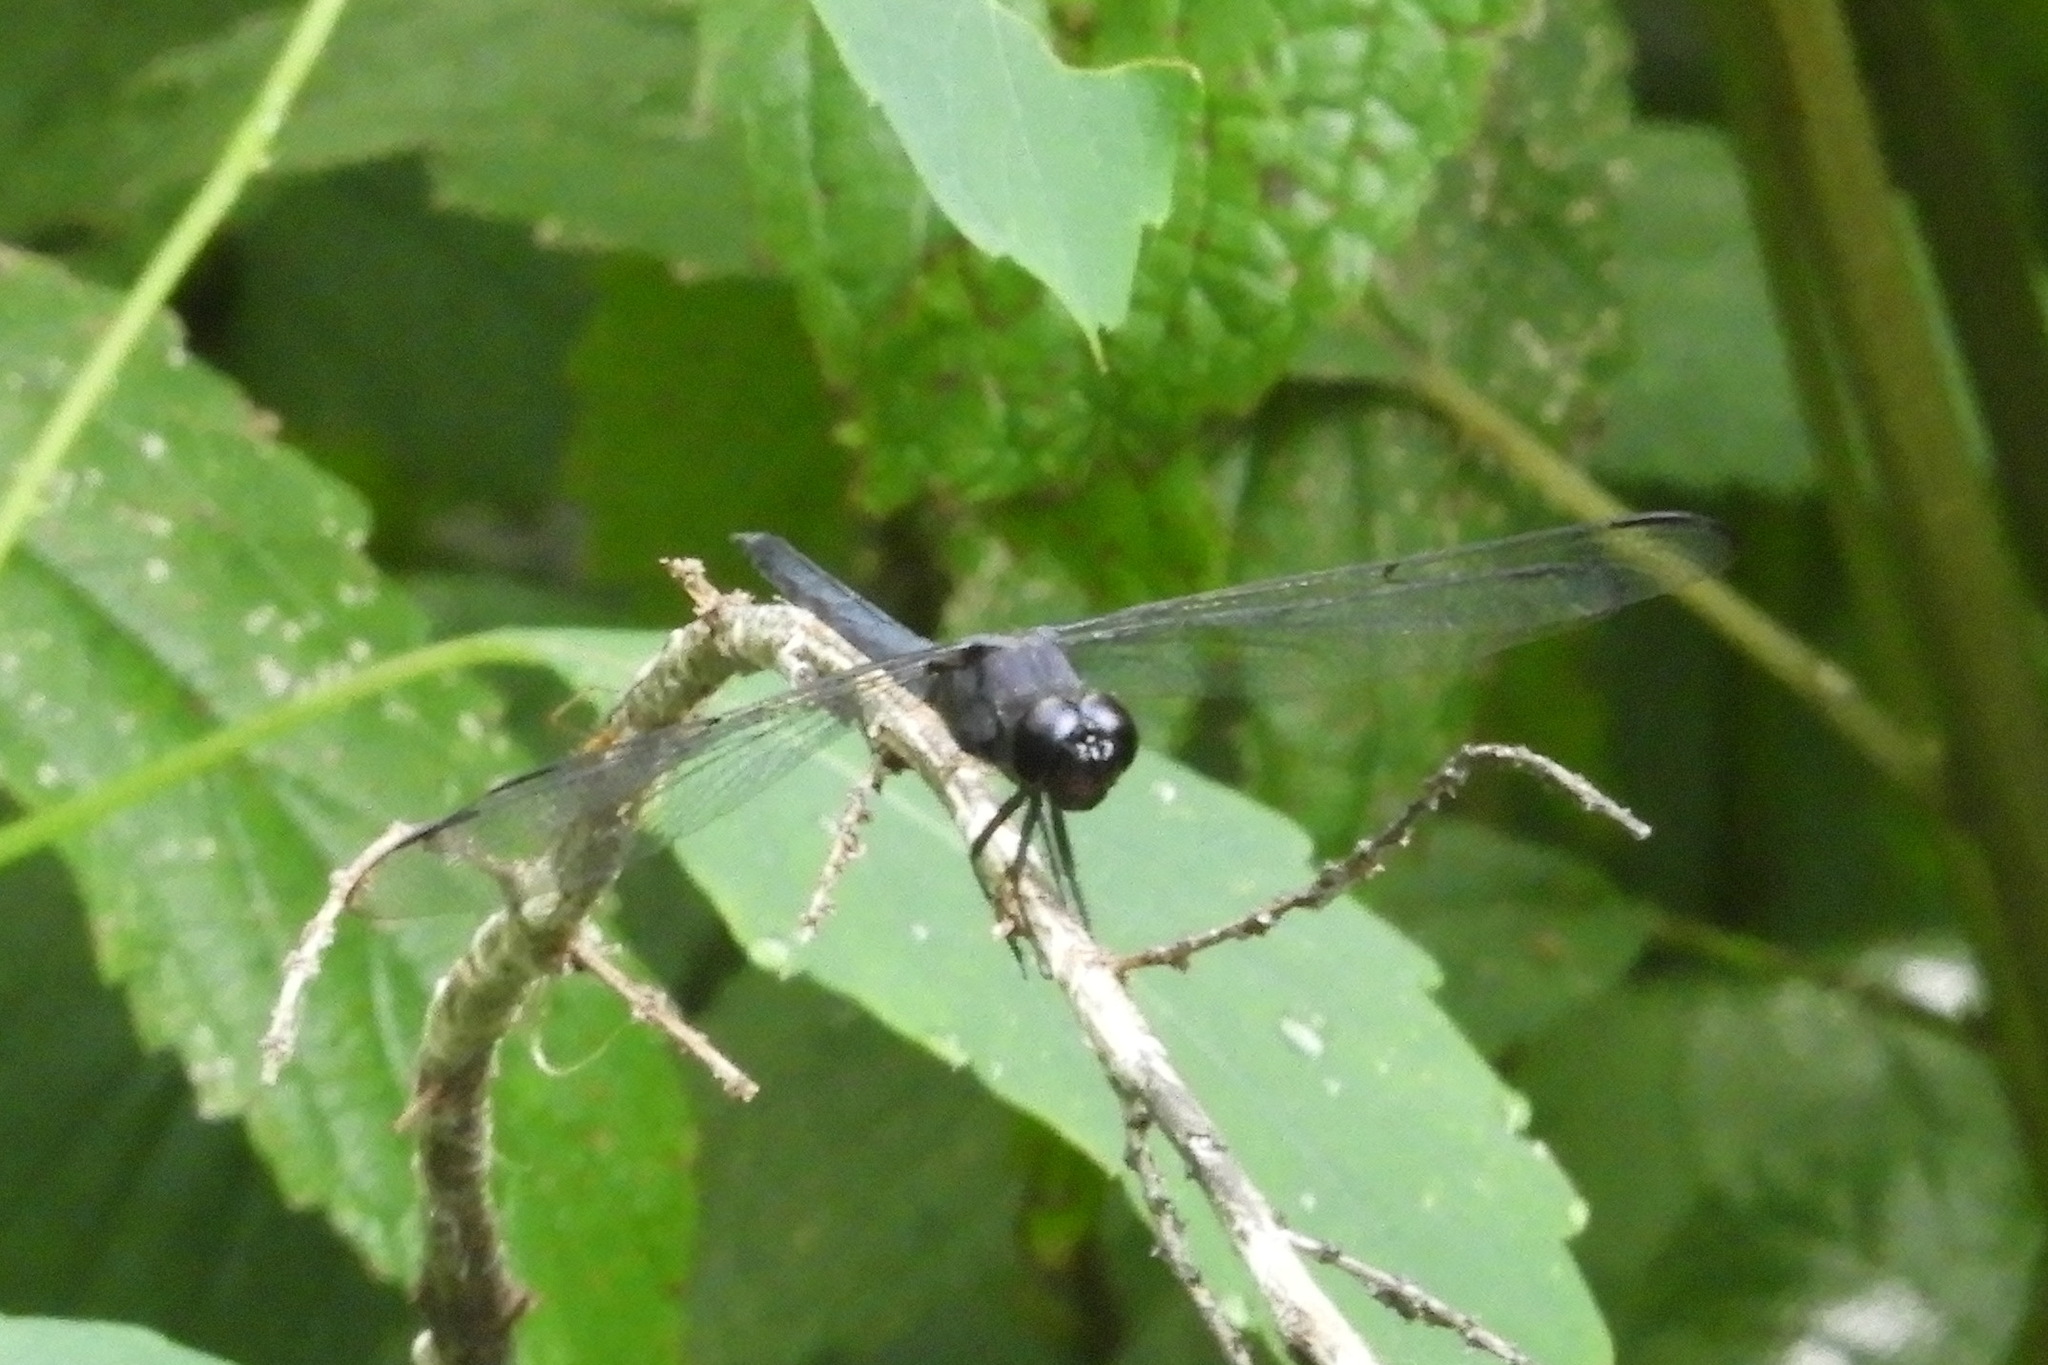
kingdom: Animalia
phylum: Arthropoda
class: Insecta
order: Odonata
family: Libellulidae
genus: Libellula
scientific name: Libellula incesta
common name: Slaty skimmer
